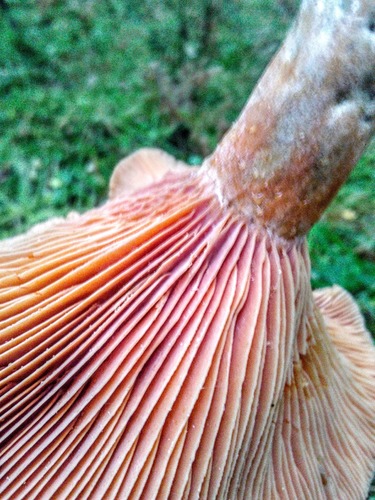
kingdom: Fungi
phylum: Basidiomycota
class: Agaricomycetes
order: Russulales
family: Russulaceae
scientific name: Russulaceae
